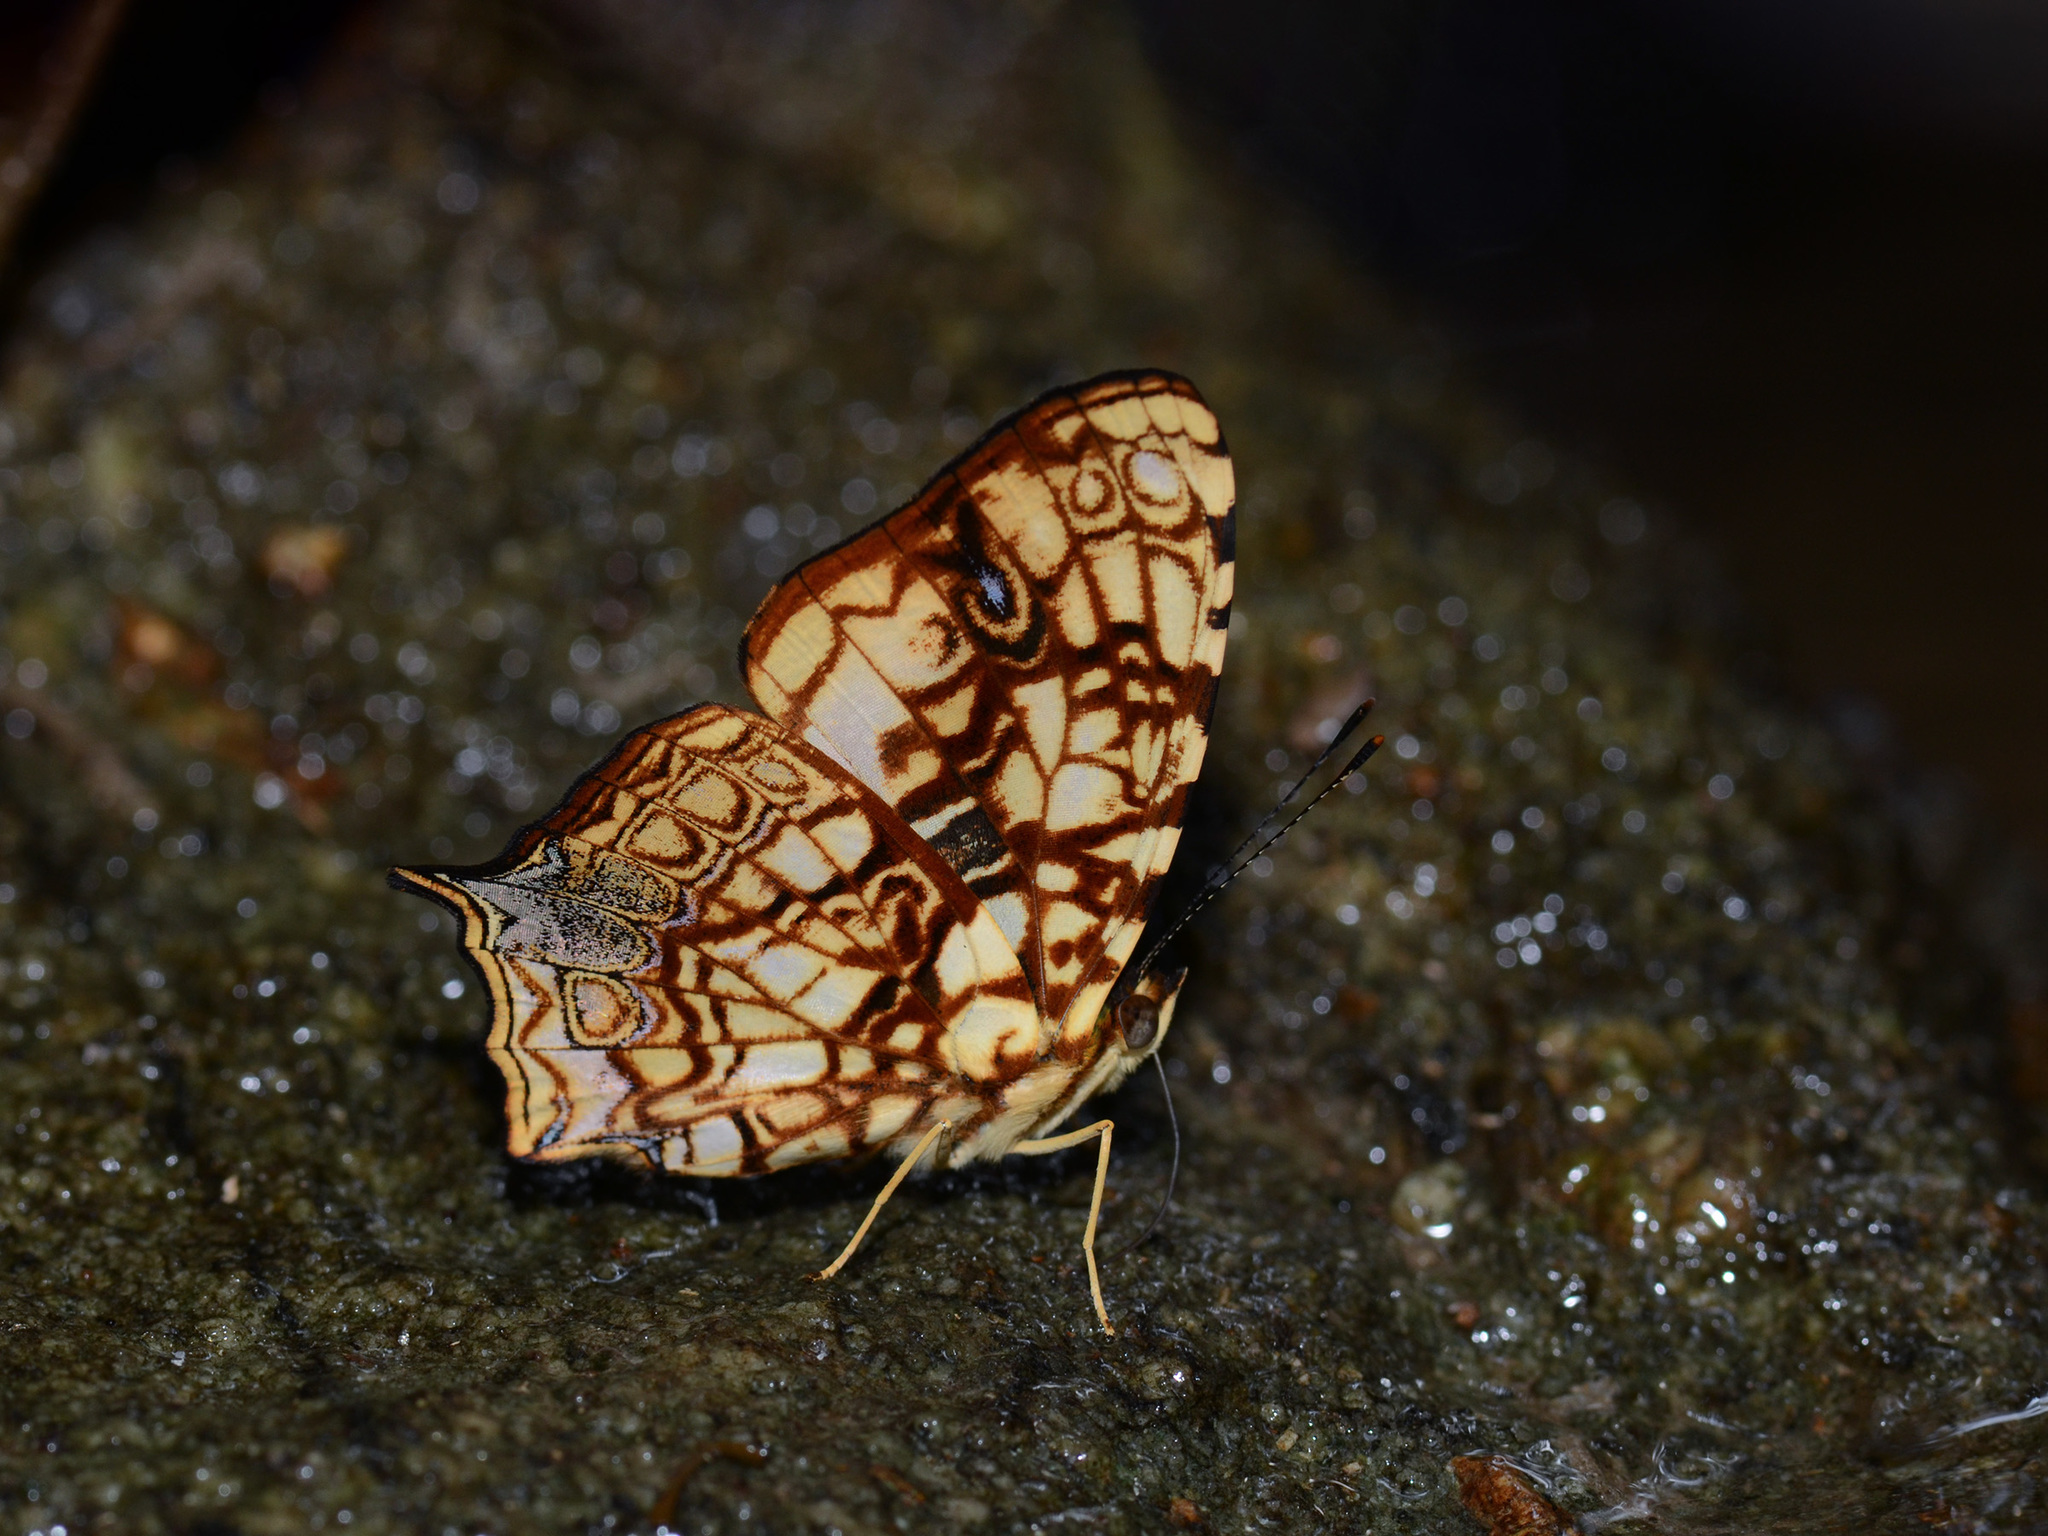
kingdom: Animalia
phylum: Arthropoda
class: Insecta
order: Lepidoptera
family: Nymphalidae
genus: Symbrenthia
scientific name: Symbrenthia hypatia
